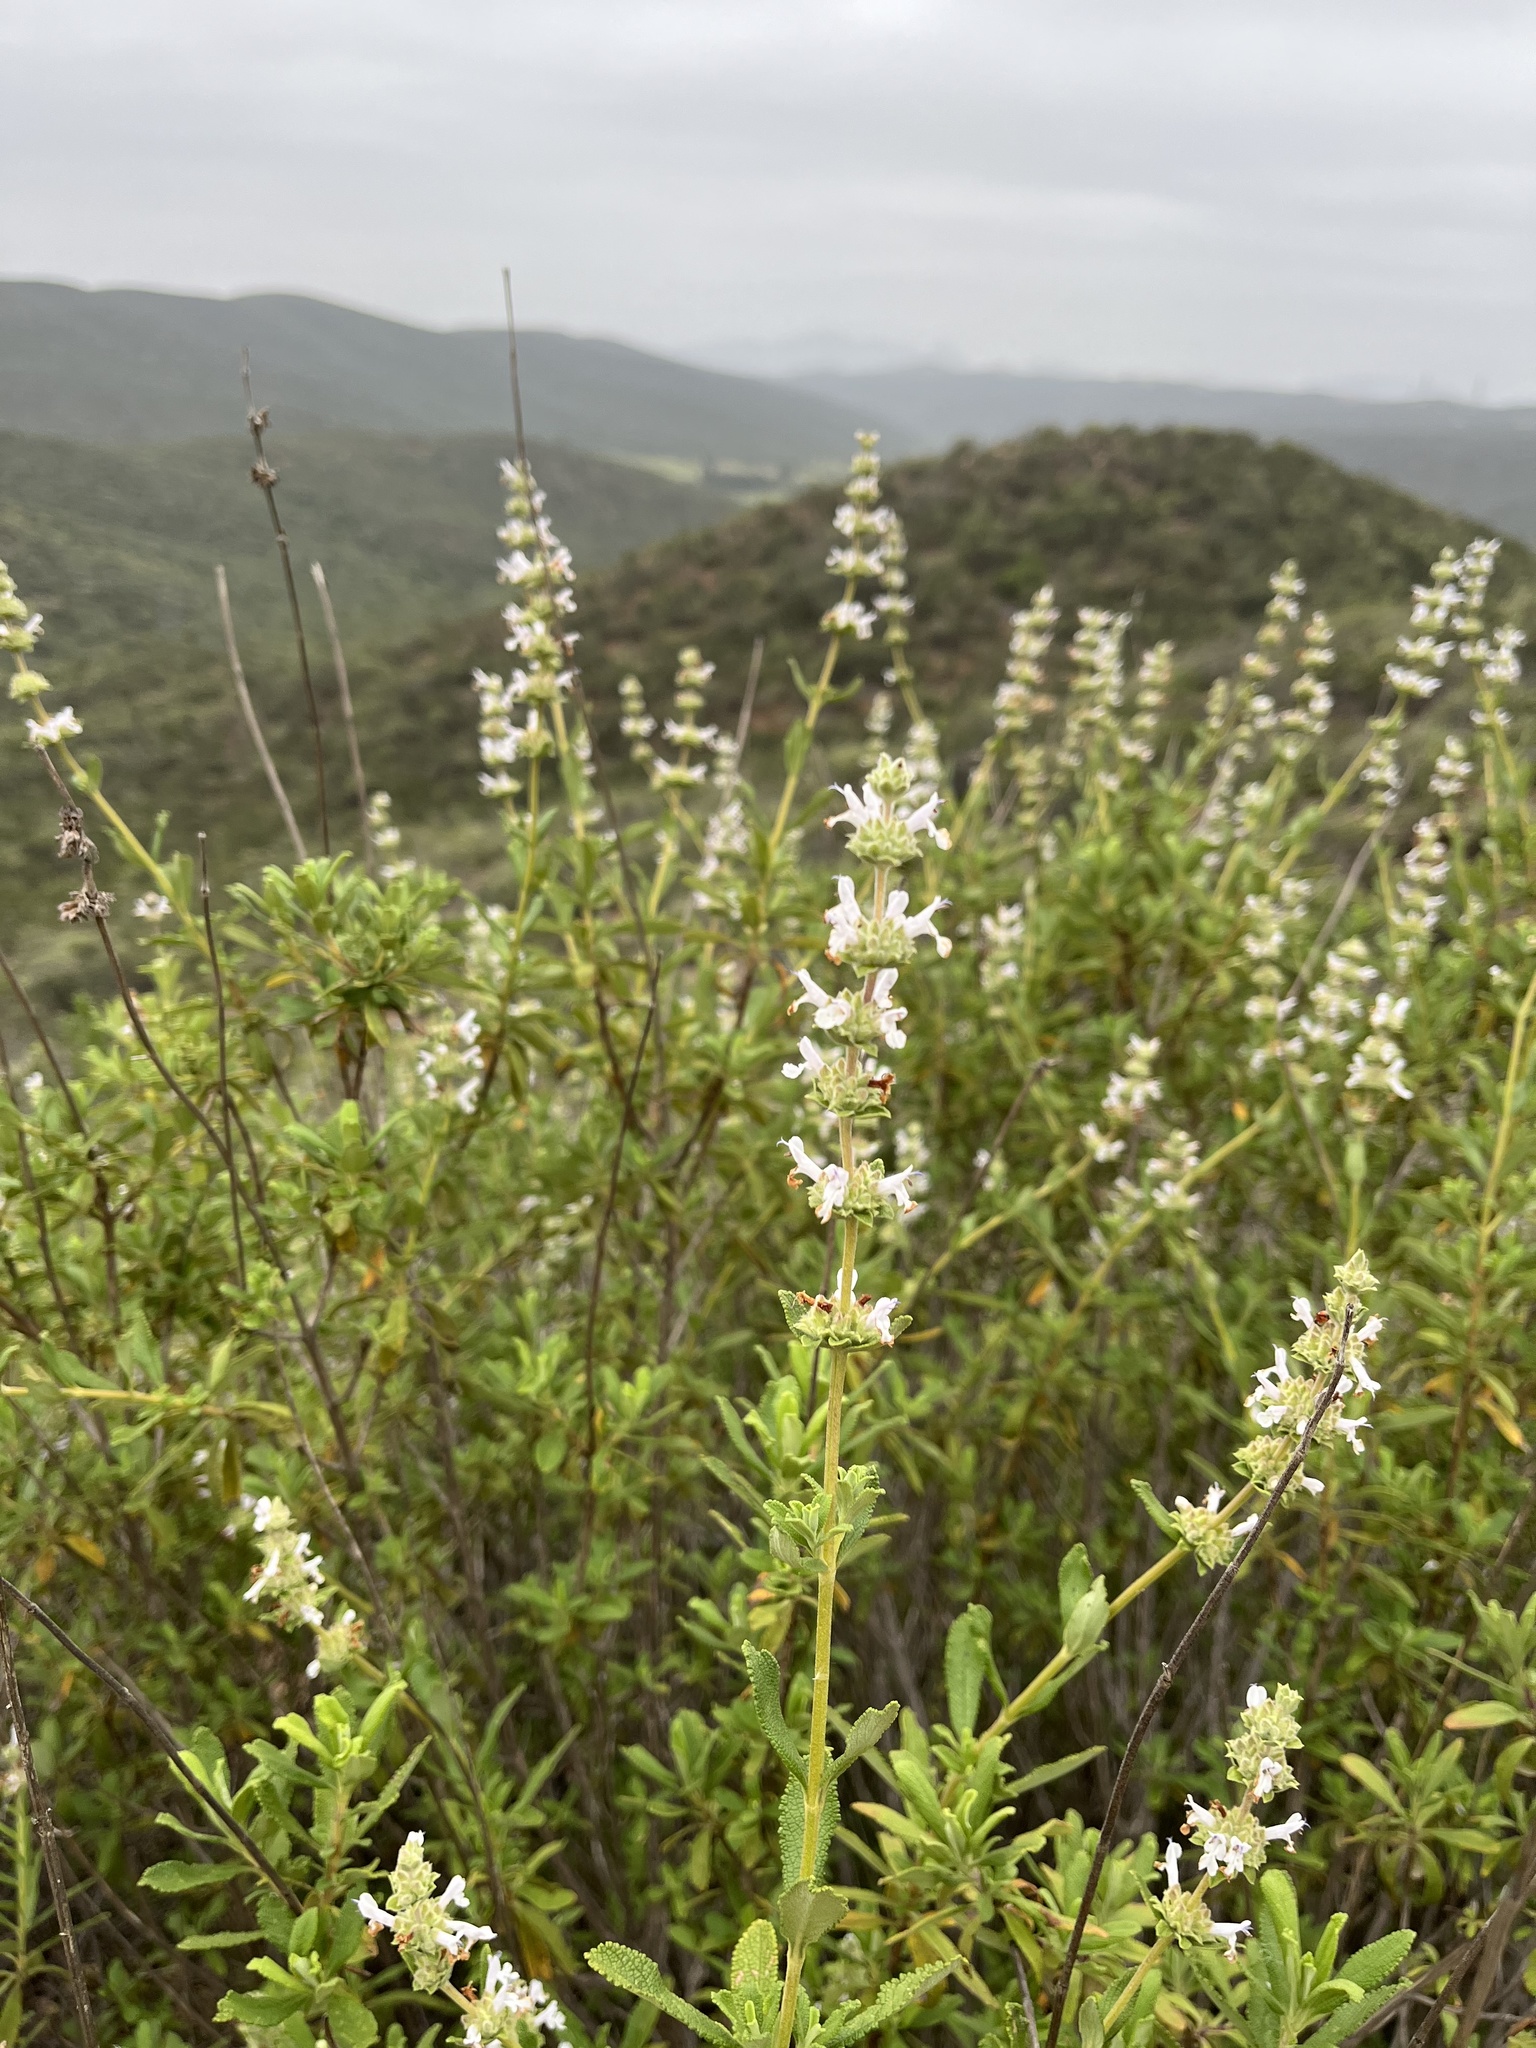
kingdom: Plantae
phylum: Tracheophyta
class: Magnoliopsida
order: Lamiales
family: Lamiaceae
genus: Salvia
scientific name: Salvia mellifera
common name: Black sage
